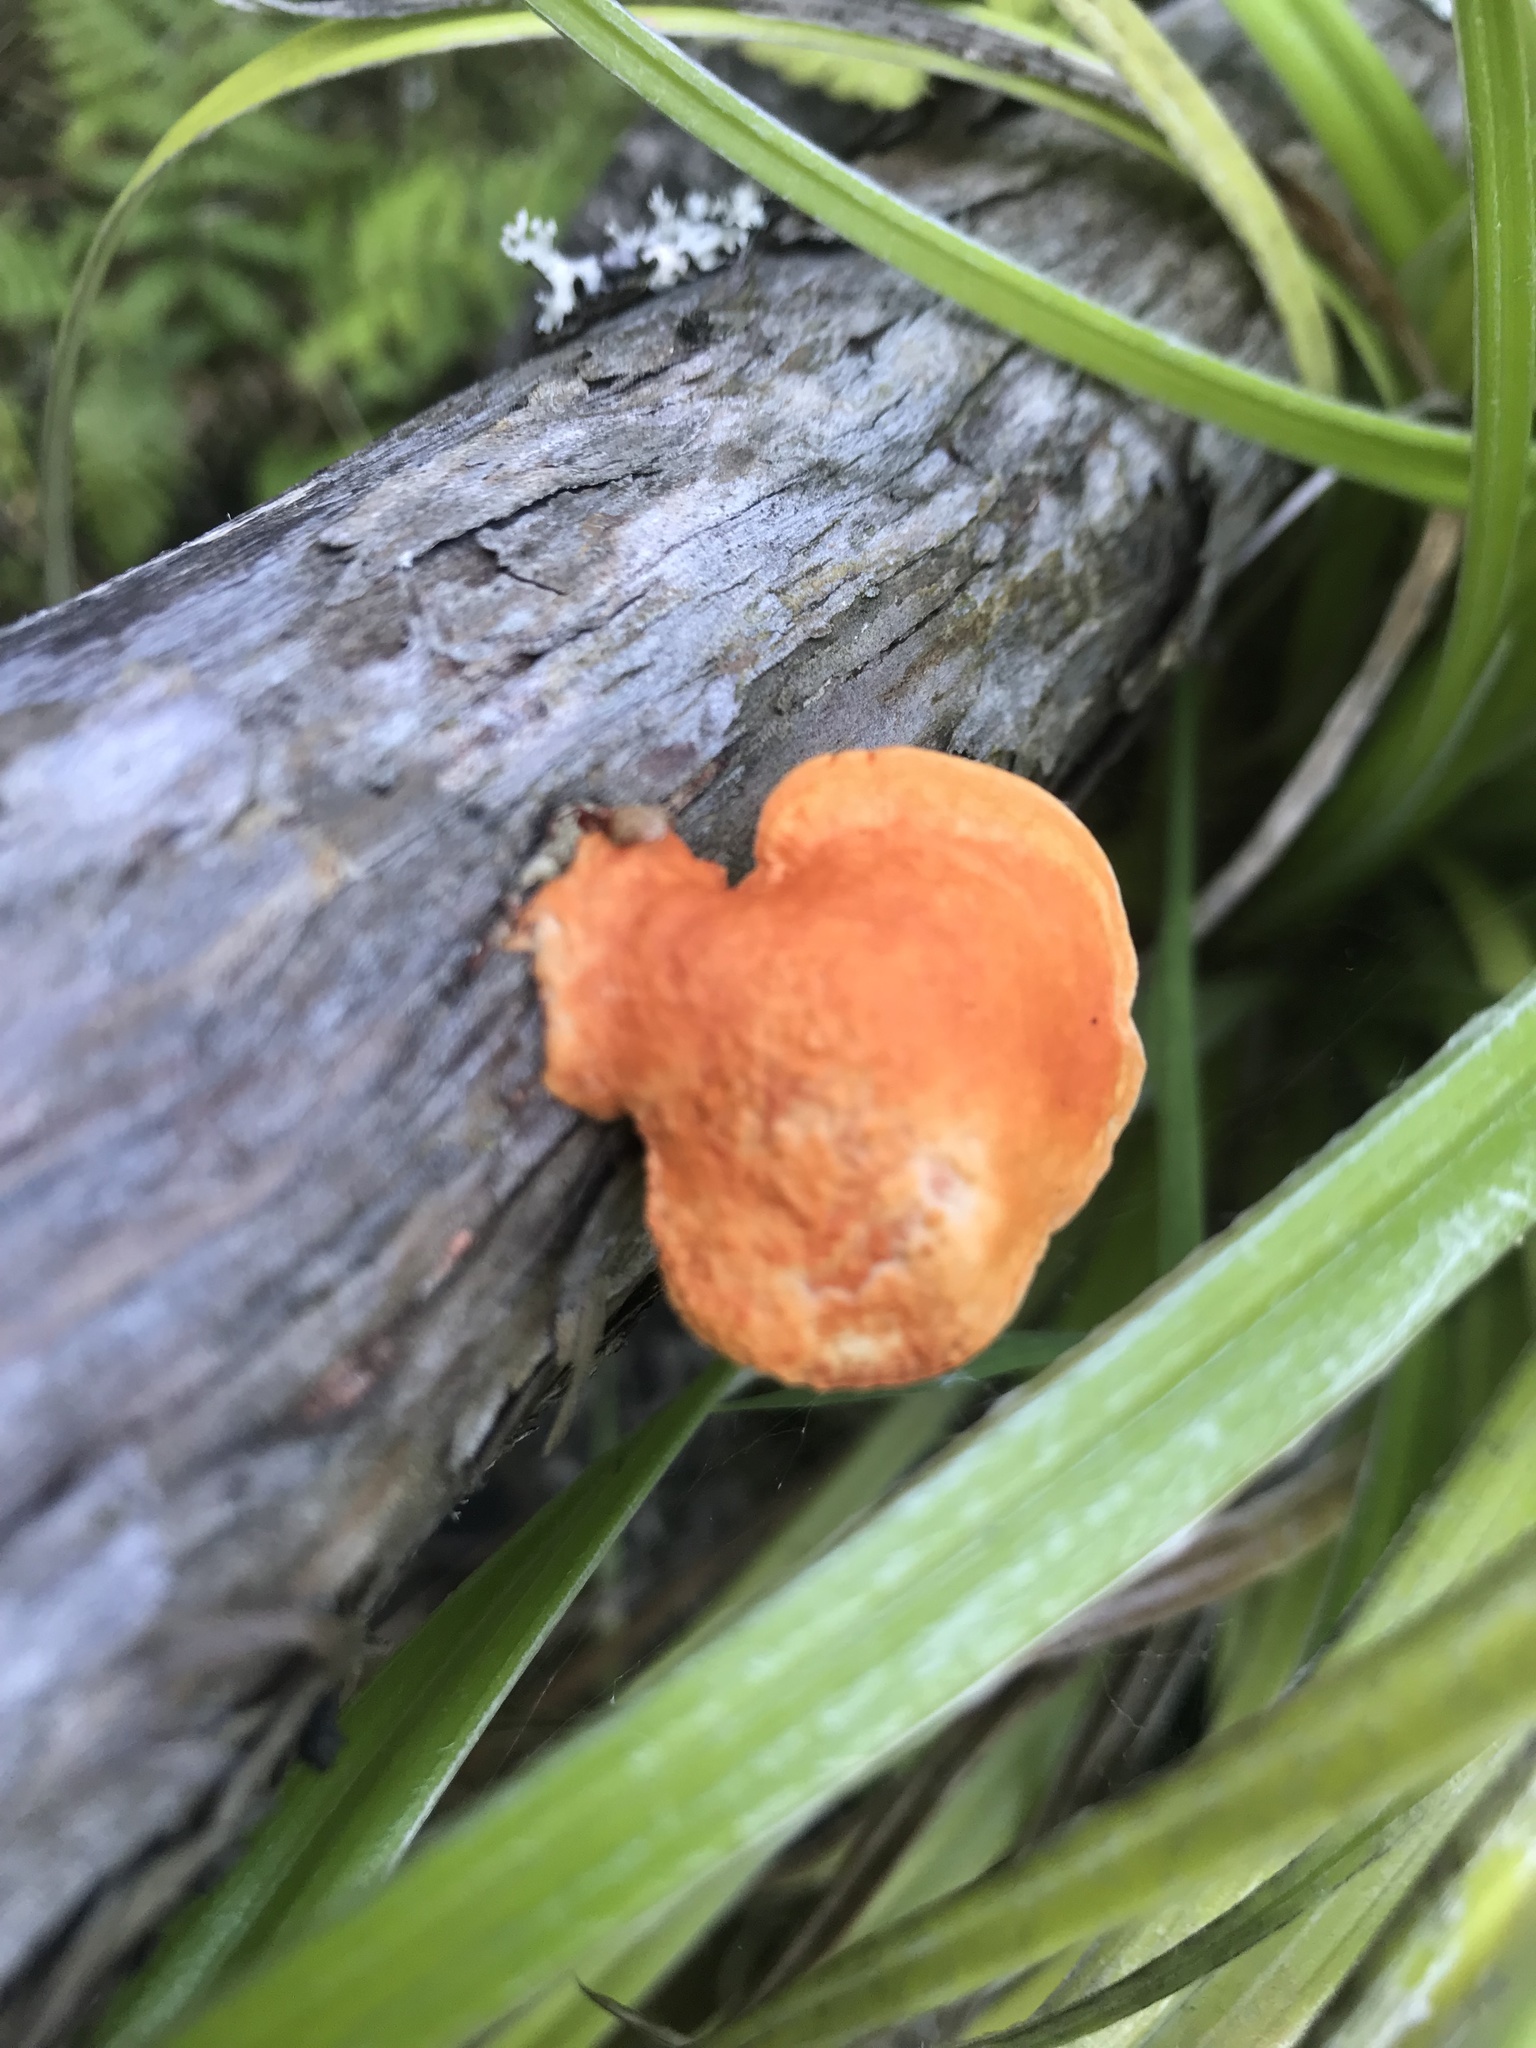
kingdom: Fungi
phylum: Basidiomycota
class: Agaricomycetes
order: Polyporales
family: Polyporaceae
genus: Trametes
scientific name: Trametes coccinea
